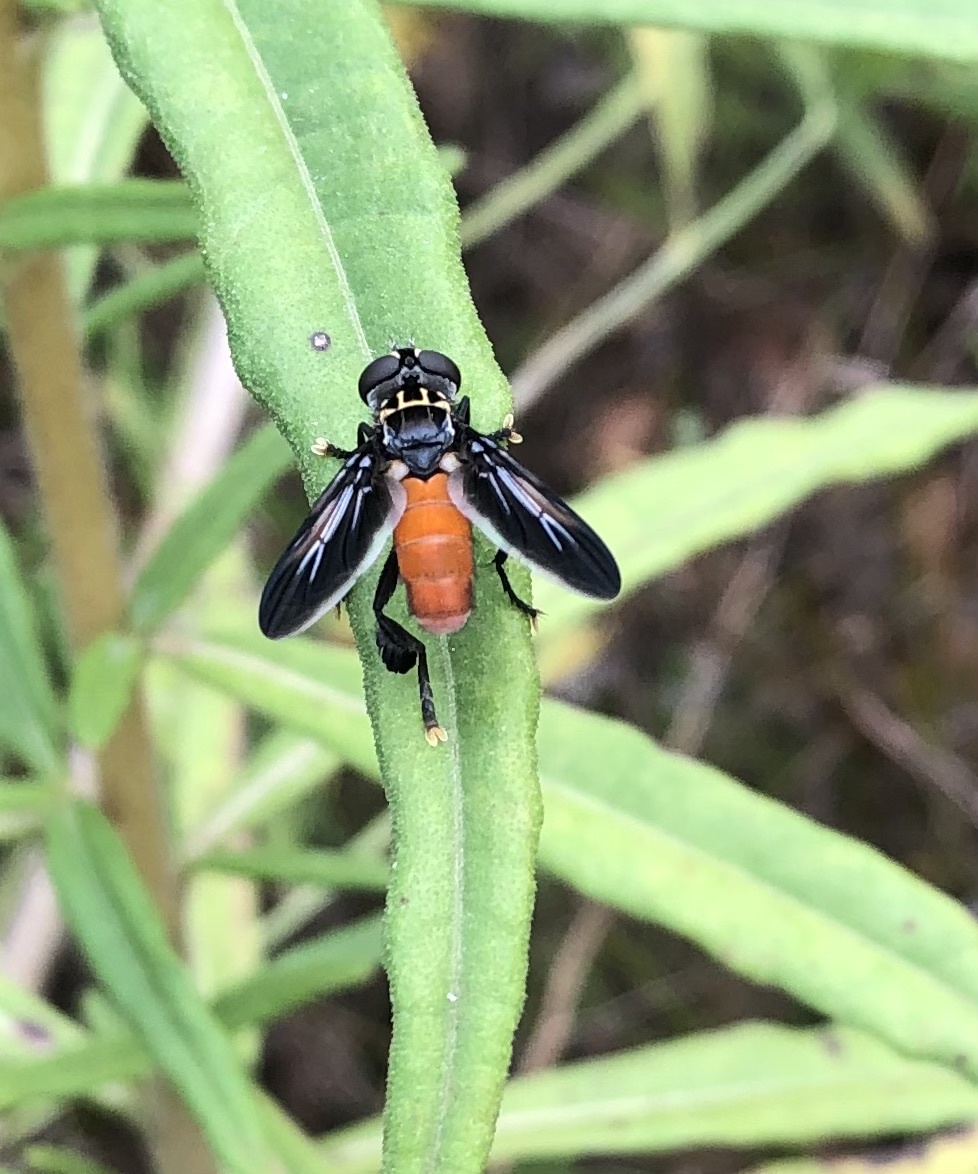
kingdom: Animalia
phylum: Arthropoda
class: Insecta
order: Diptera
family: Tachinidae
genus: Trichopoda
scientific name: Trichopoda pennipes
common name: Tachinid fly
